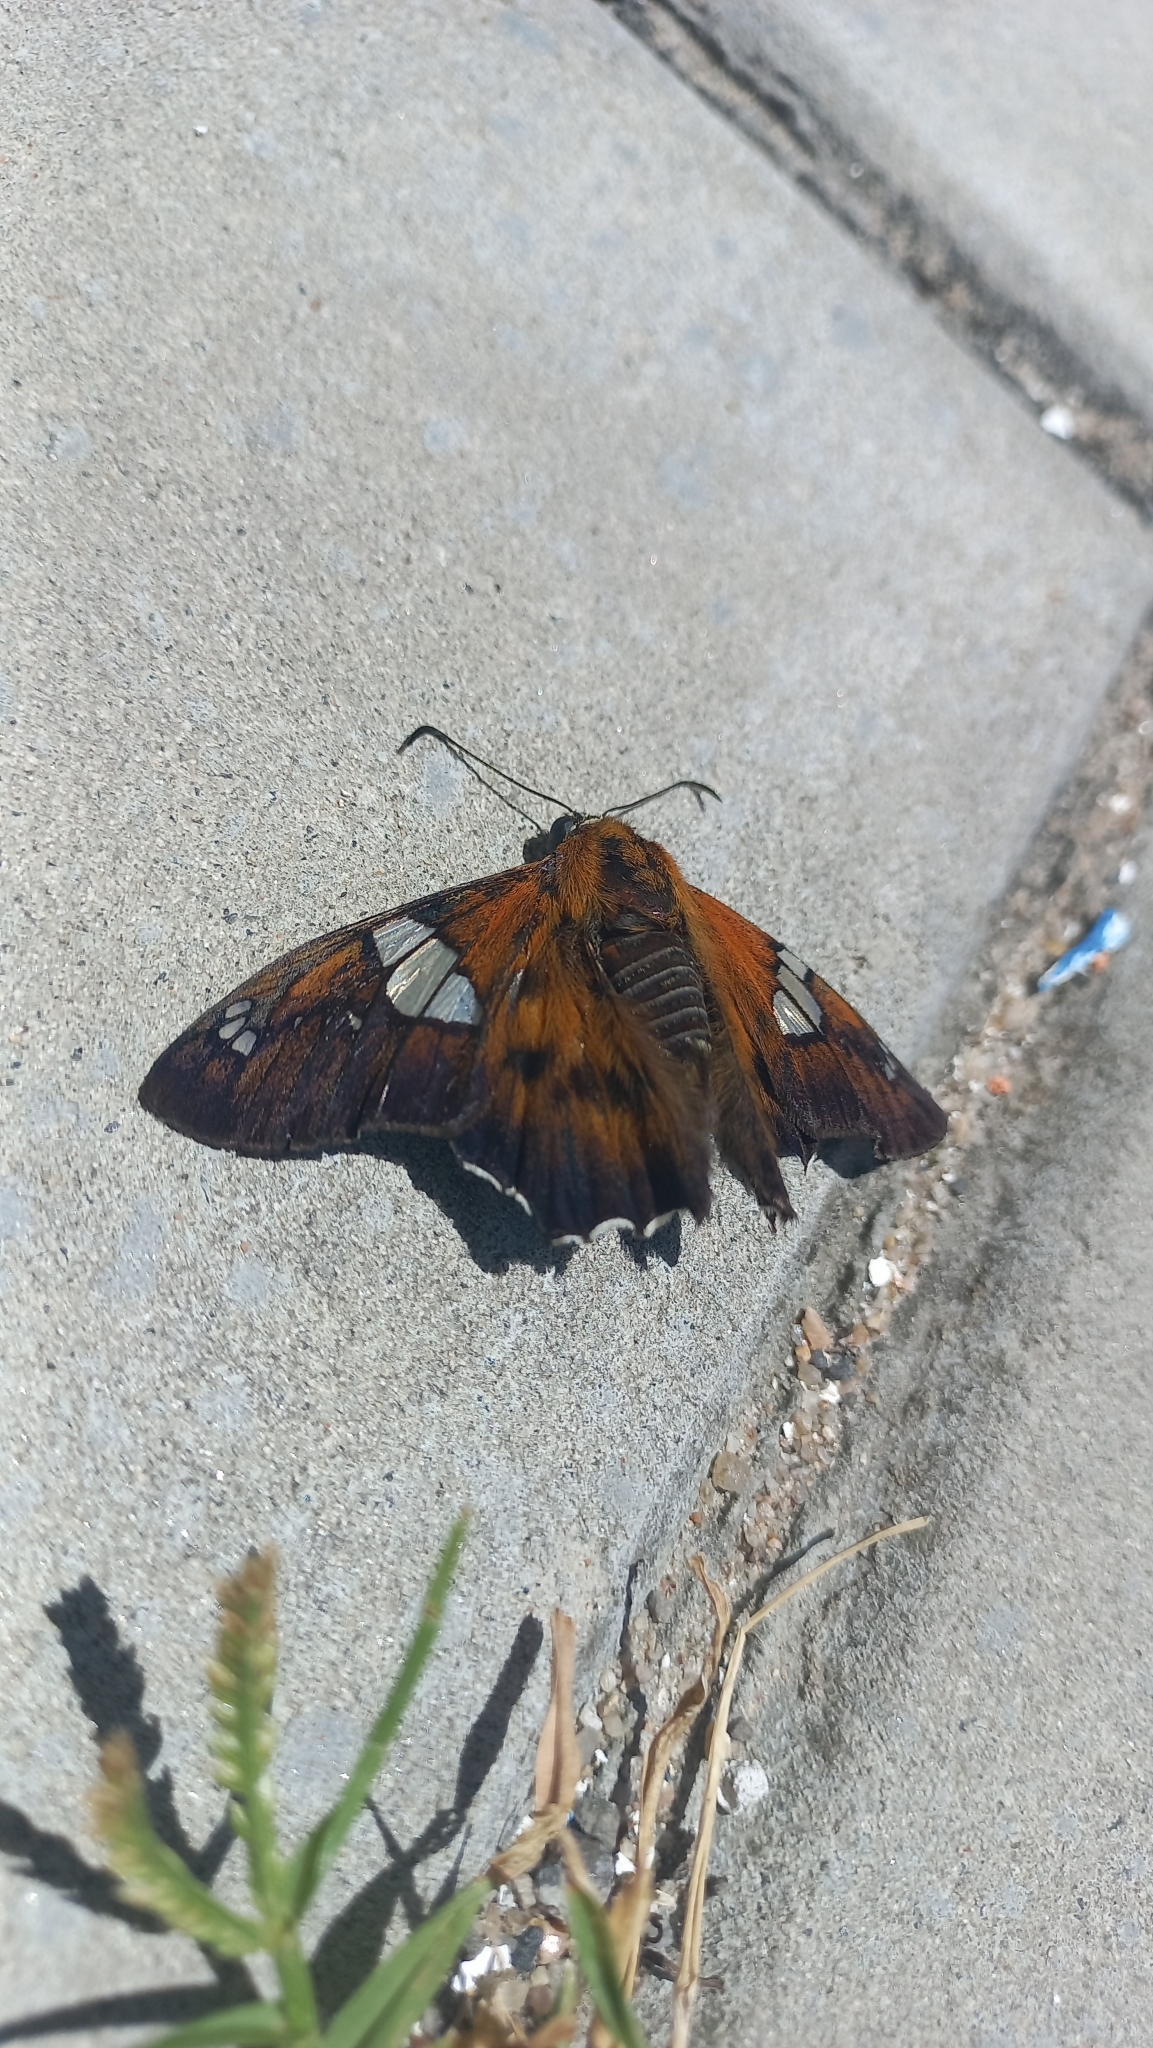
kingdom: Animalia
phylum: Arthropoda
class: Insecta
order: Lepidoptera
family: Hesperiidae
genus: Myscelus
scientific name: Myscelus santhilarius
